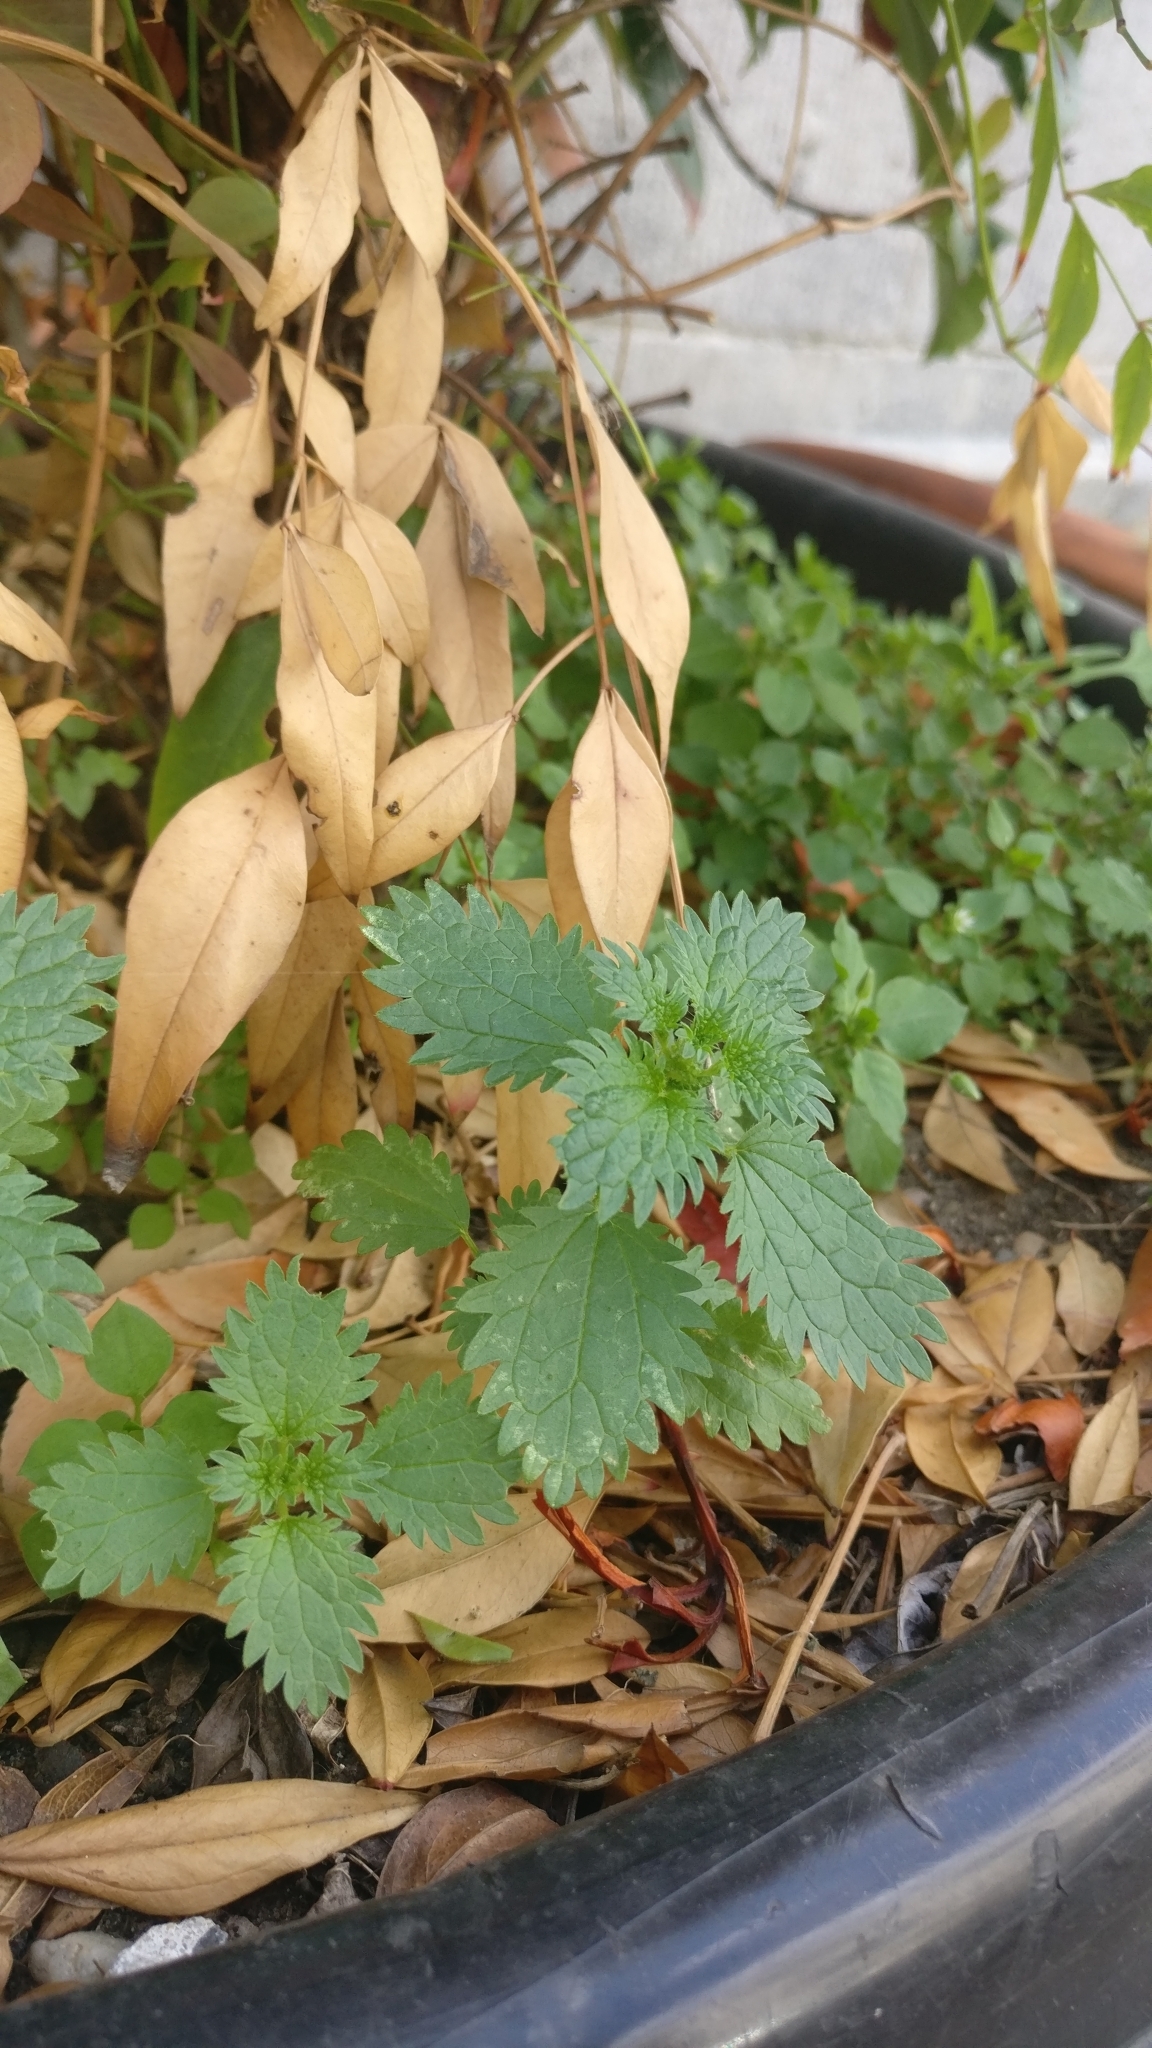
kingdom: Plantae
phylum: Tracheophyta
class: Magnoliopsida
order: Rosales
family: Urticaceae
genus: Urtica
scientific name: Urtica urens
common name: Dwarf nettle
